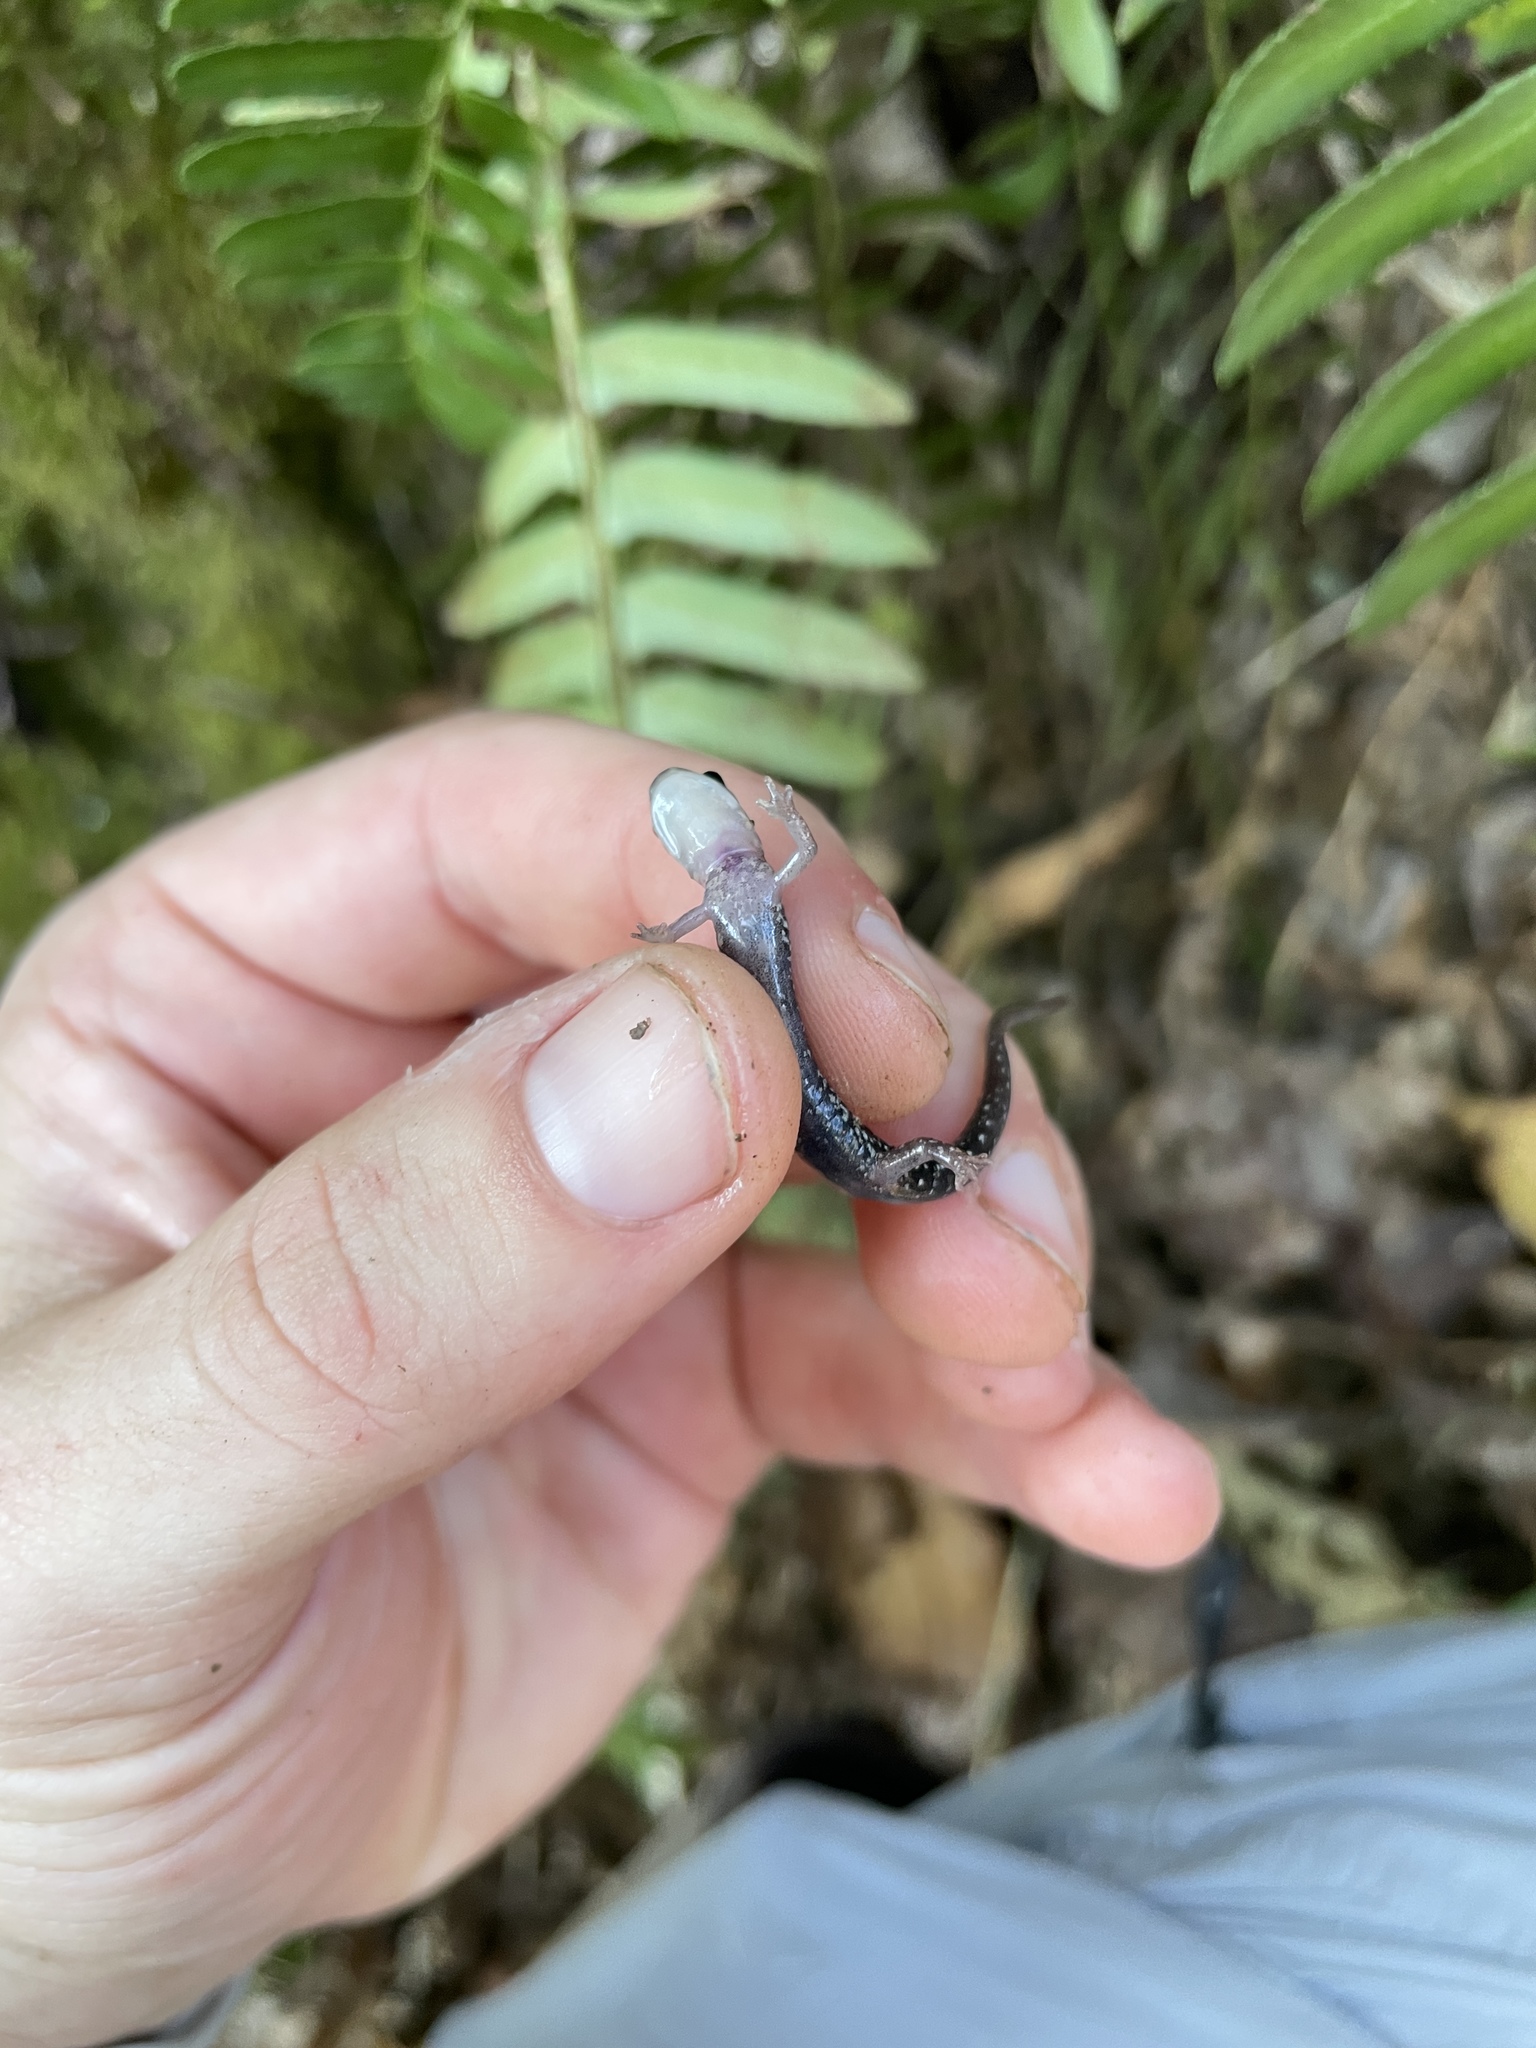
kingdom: Animalia
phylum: Chordata
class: Amphibia
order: Caudata
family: Plethodontidae
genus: Plethodon
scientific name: Plethodon caddoensis
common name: Caddo mountain salamander
